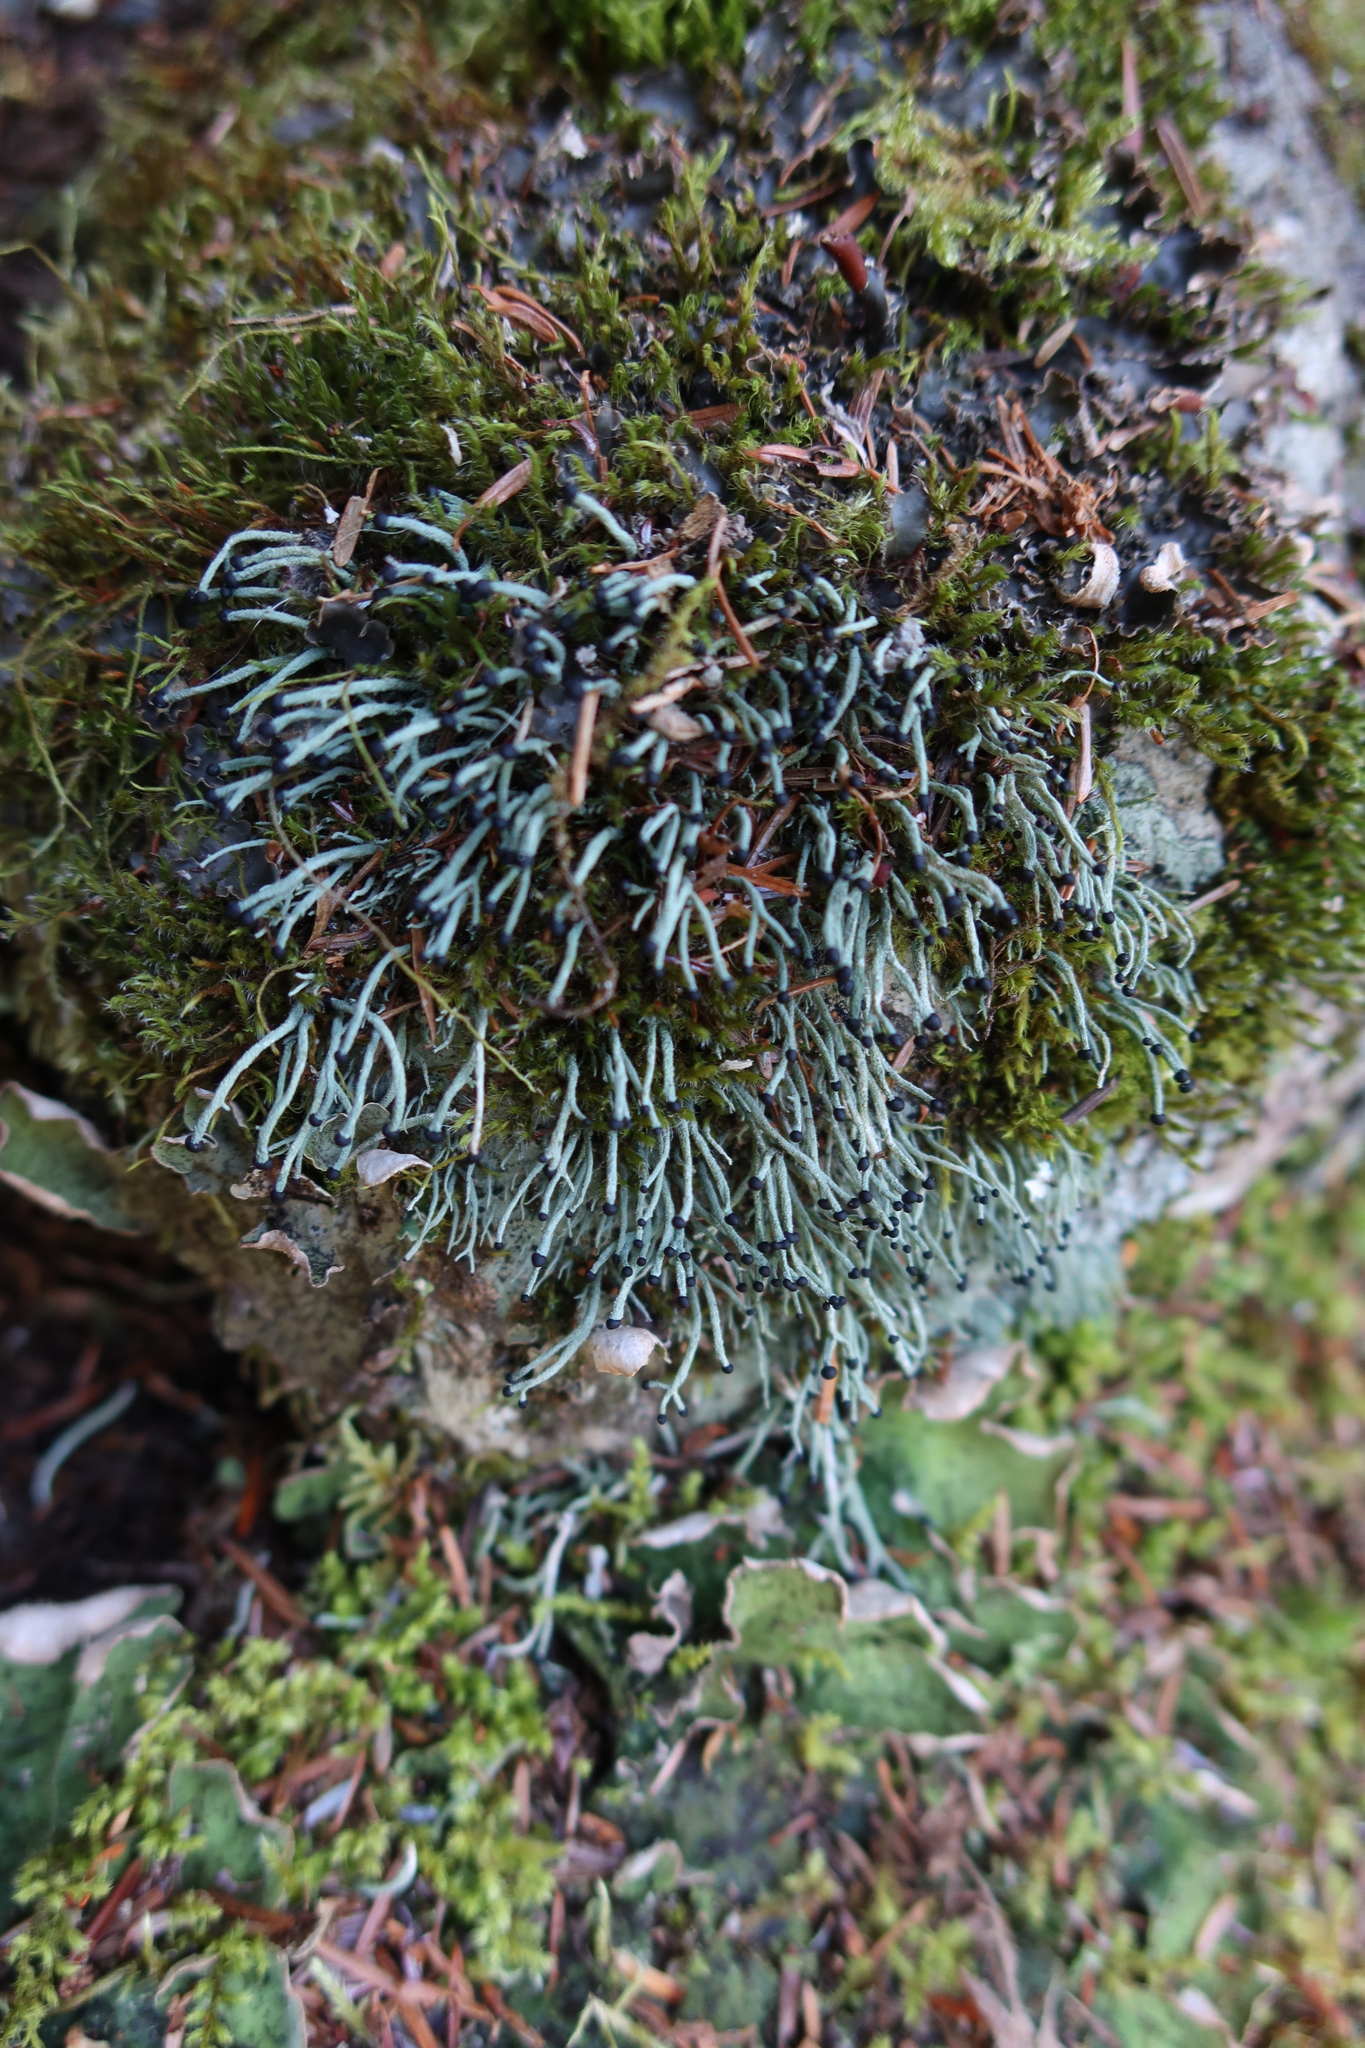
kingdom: Fungi
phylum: Ascomycota
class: Lecanoromycetes
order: Lecanorales
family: Cladoniaceae
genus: Pilophorus
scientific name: Pilophorus acicularis
